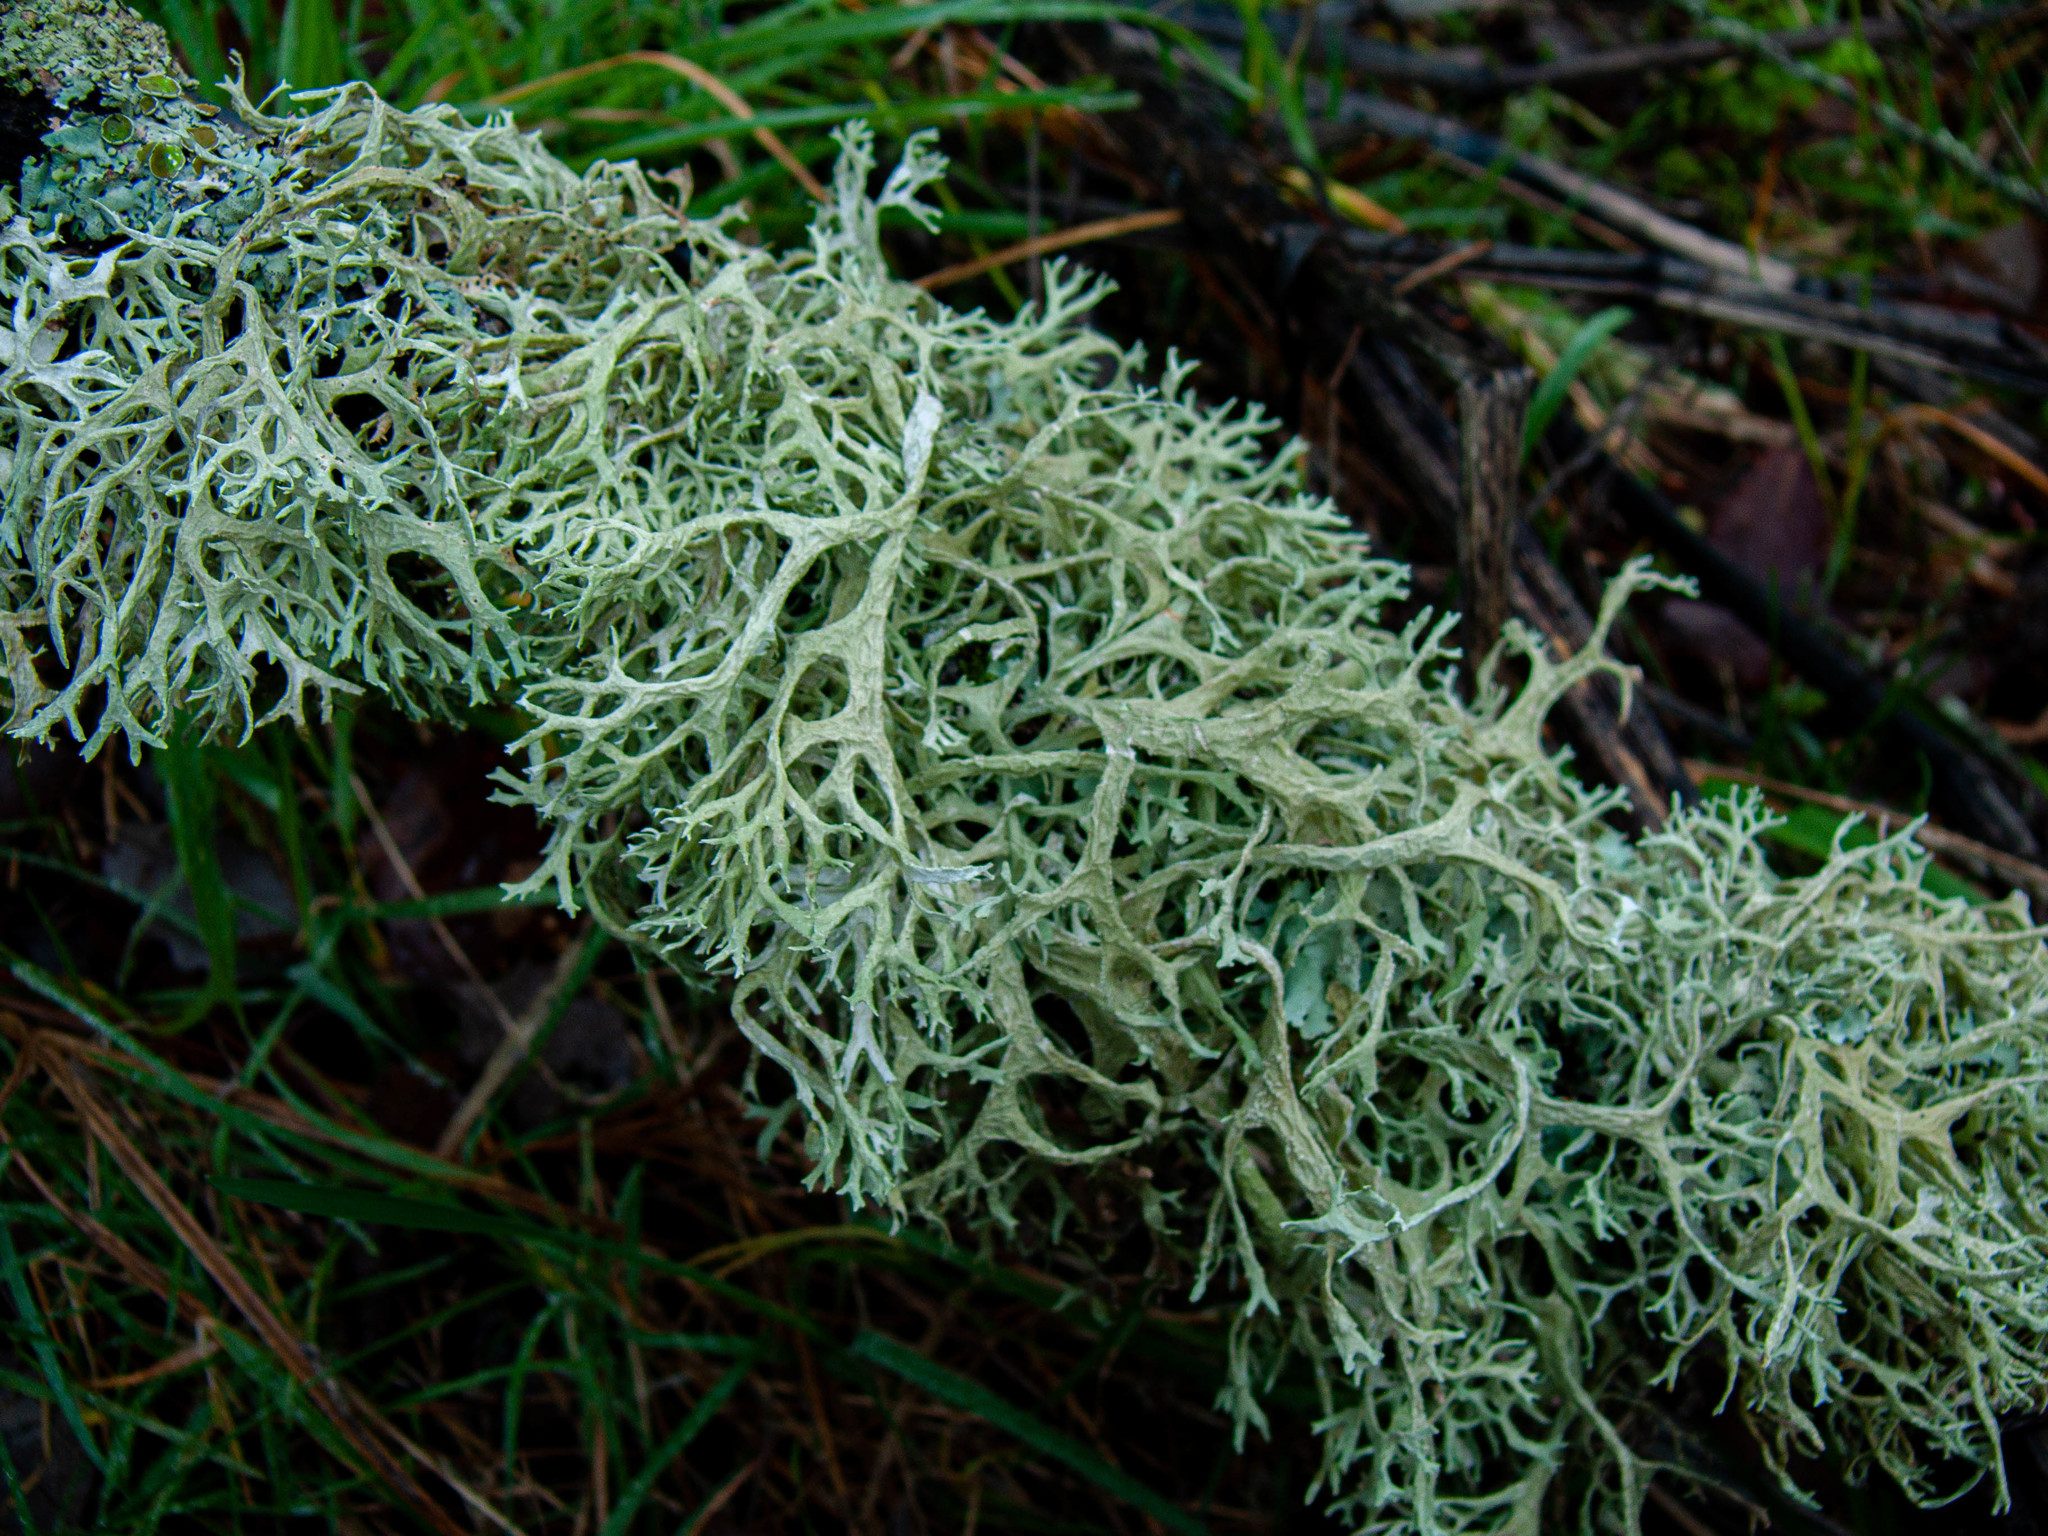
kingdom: Fungi
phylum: Ascomycota
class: Lecanoromycetes
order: Lecanorales
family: Parmeliaceae
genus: Evernia
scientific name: Evernia prunastri
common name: Oak moss
